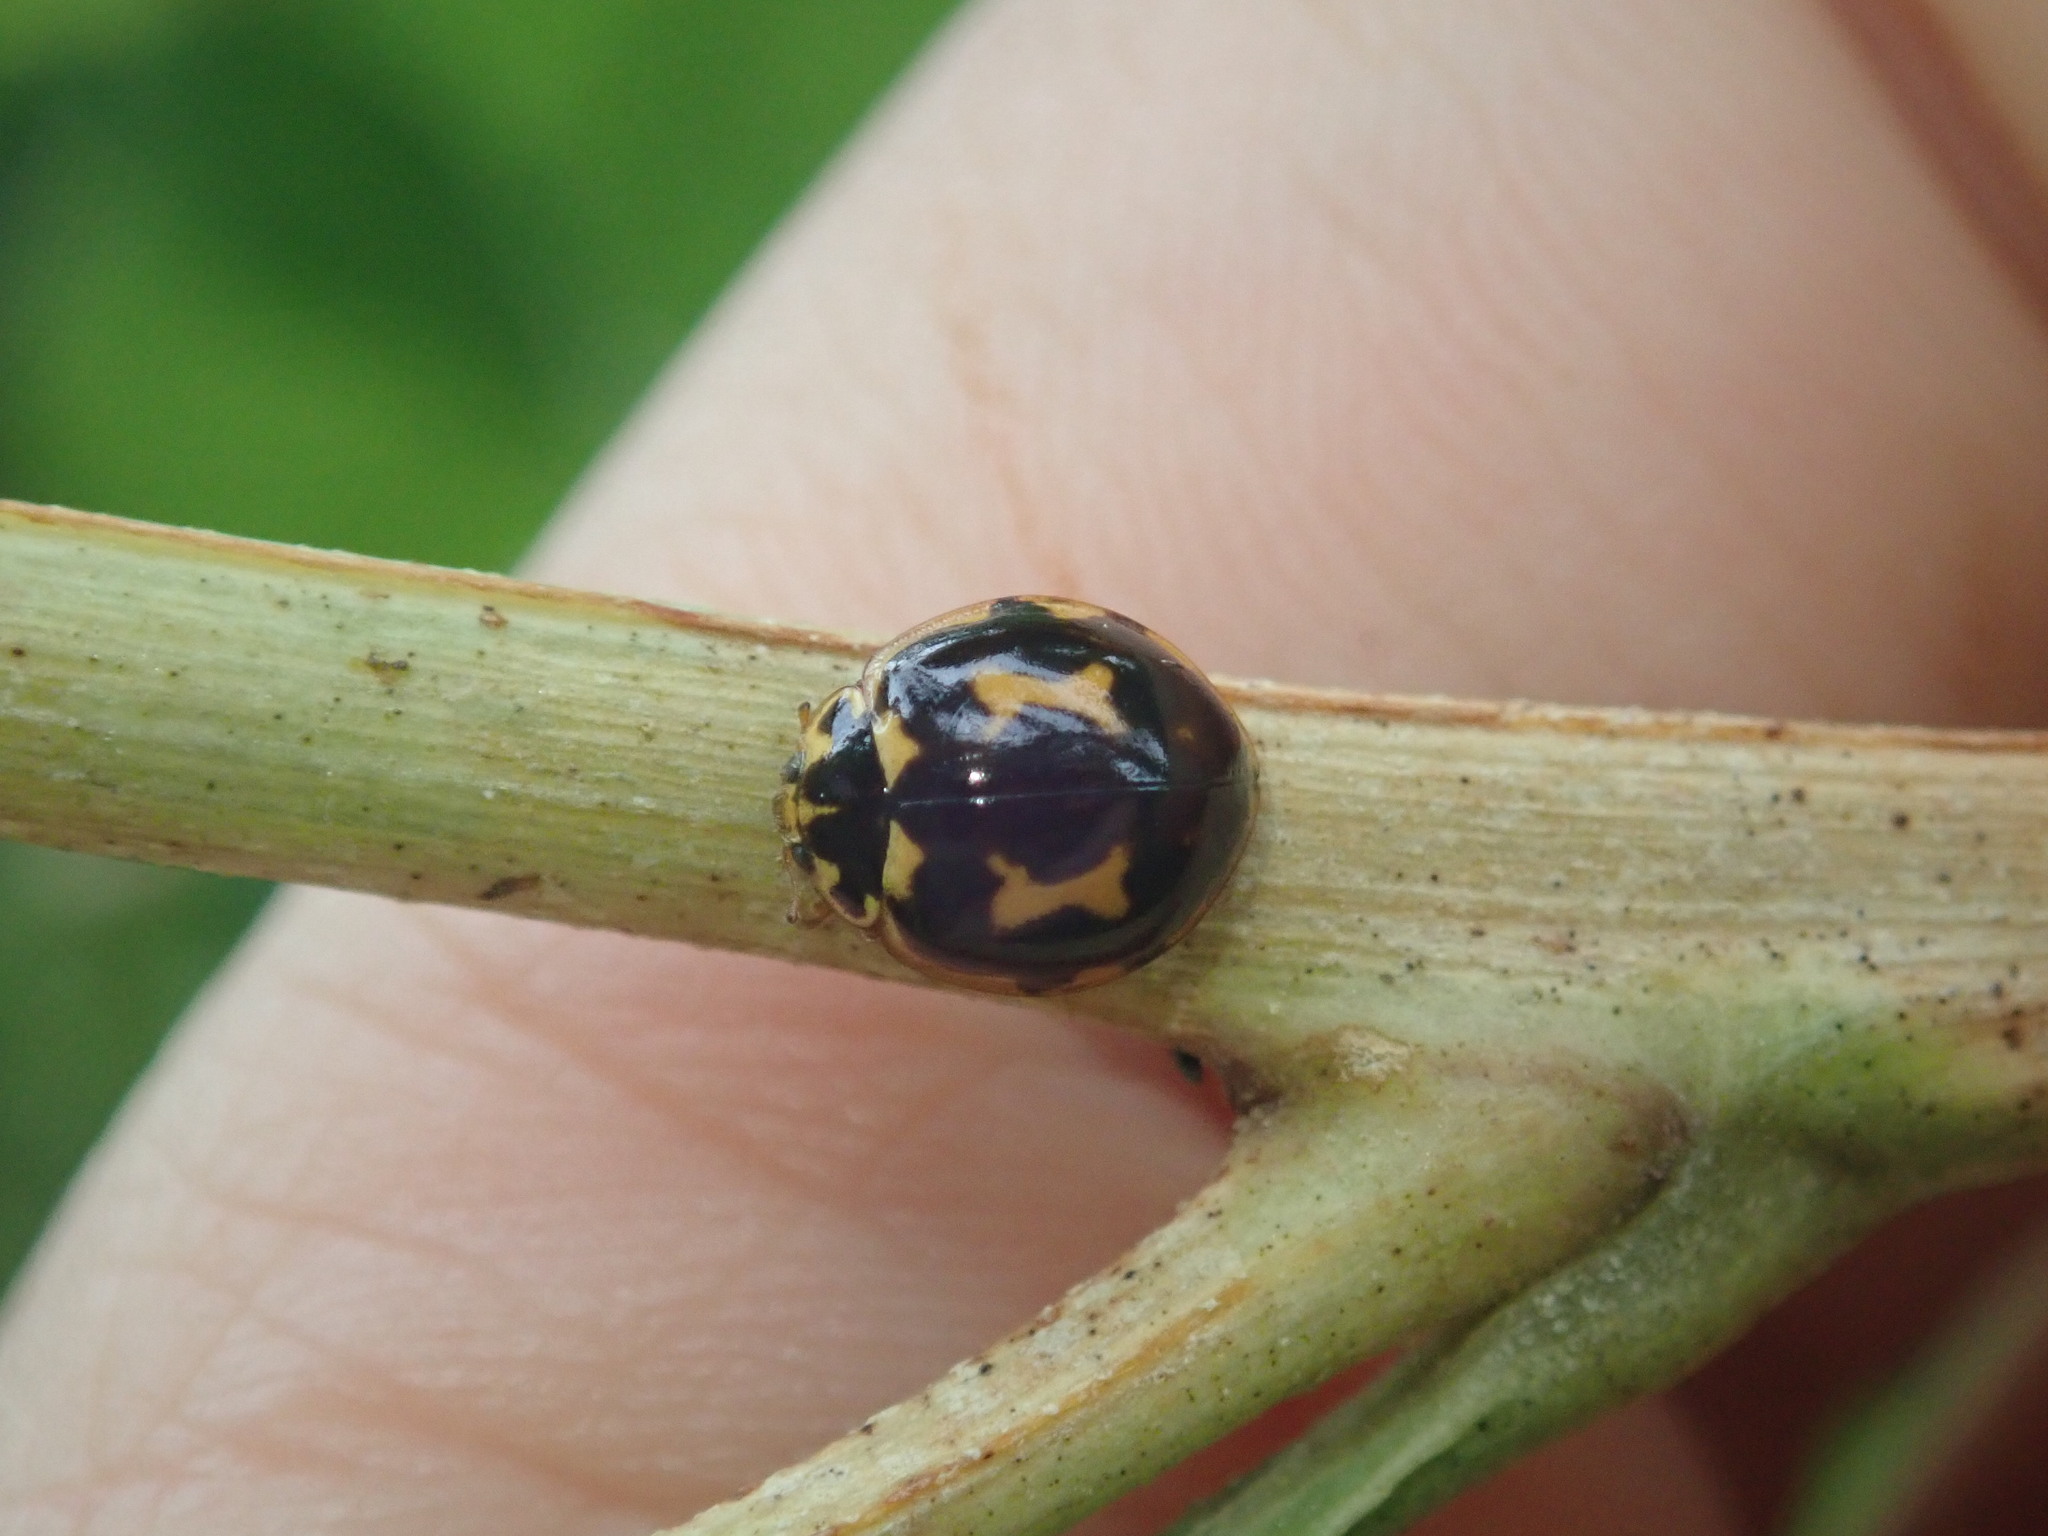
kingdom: Animalia
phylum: Arthropoda
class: Insecta
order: Coleoptera
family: Coccinellidae
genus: Harmonia
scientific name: Harmonia conformis
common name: Common spotted ladybird beetle
